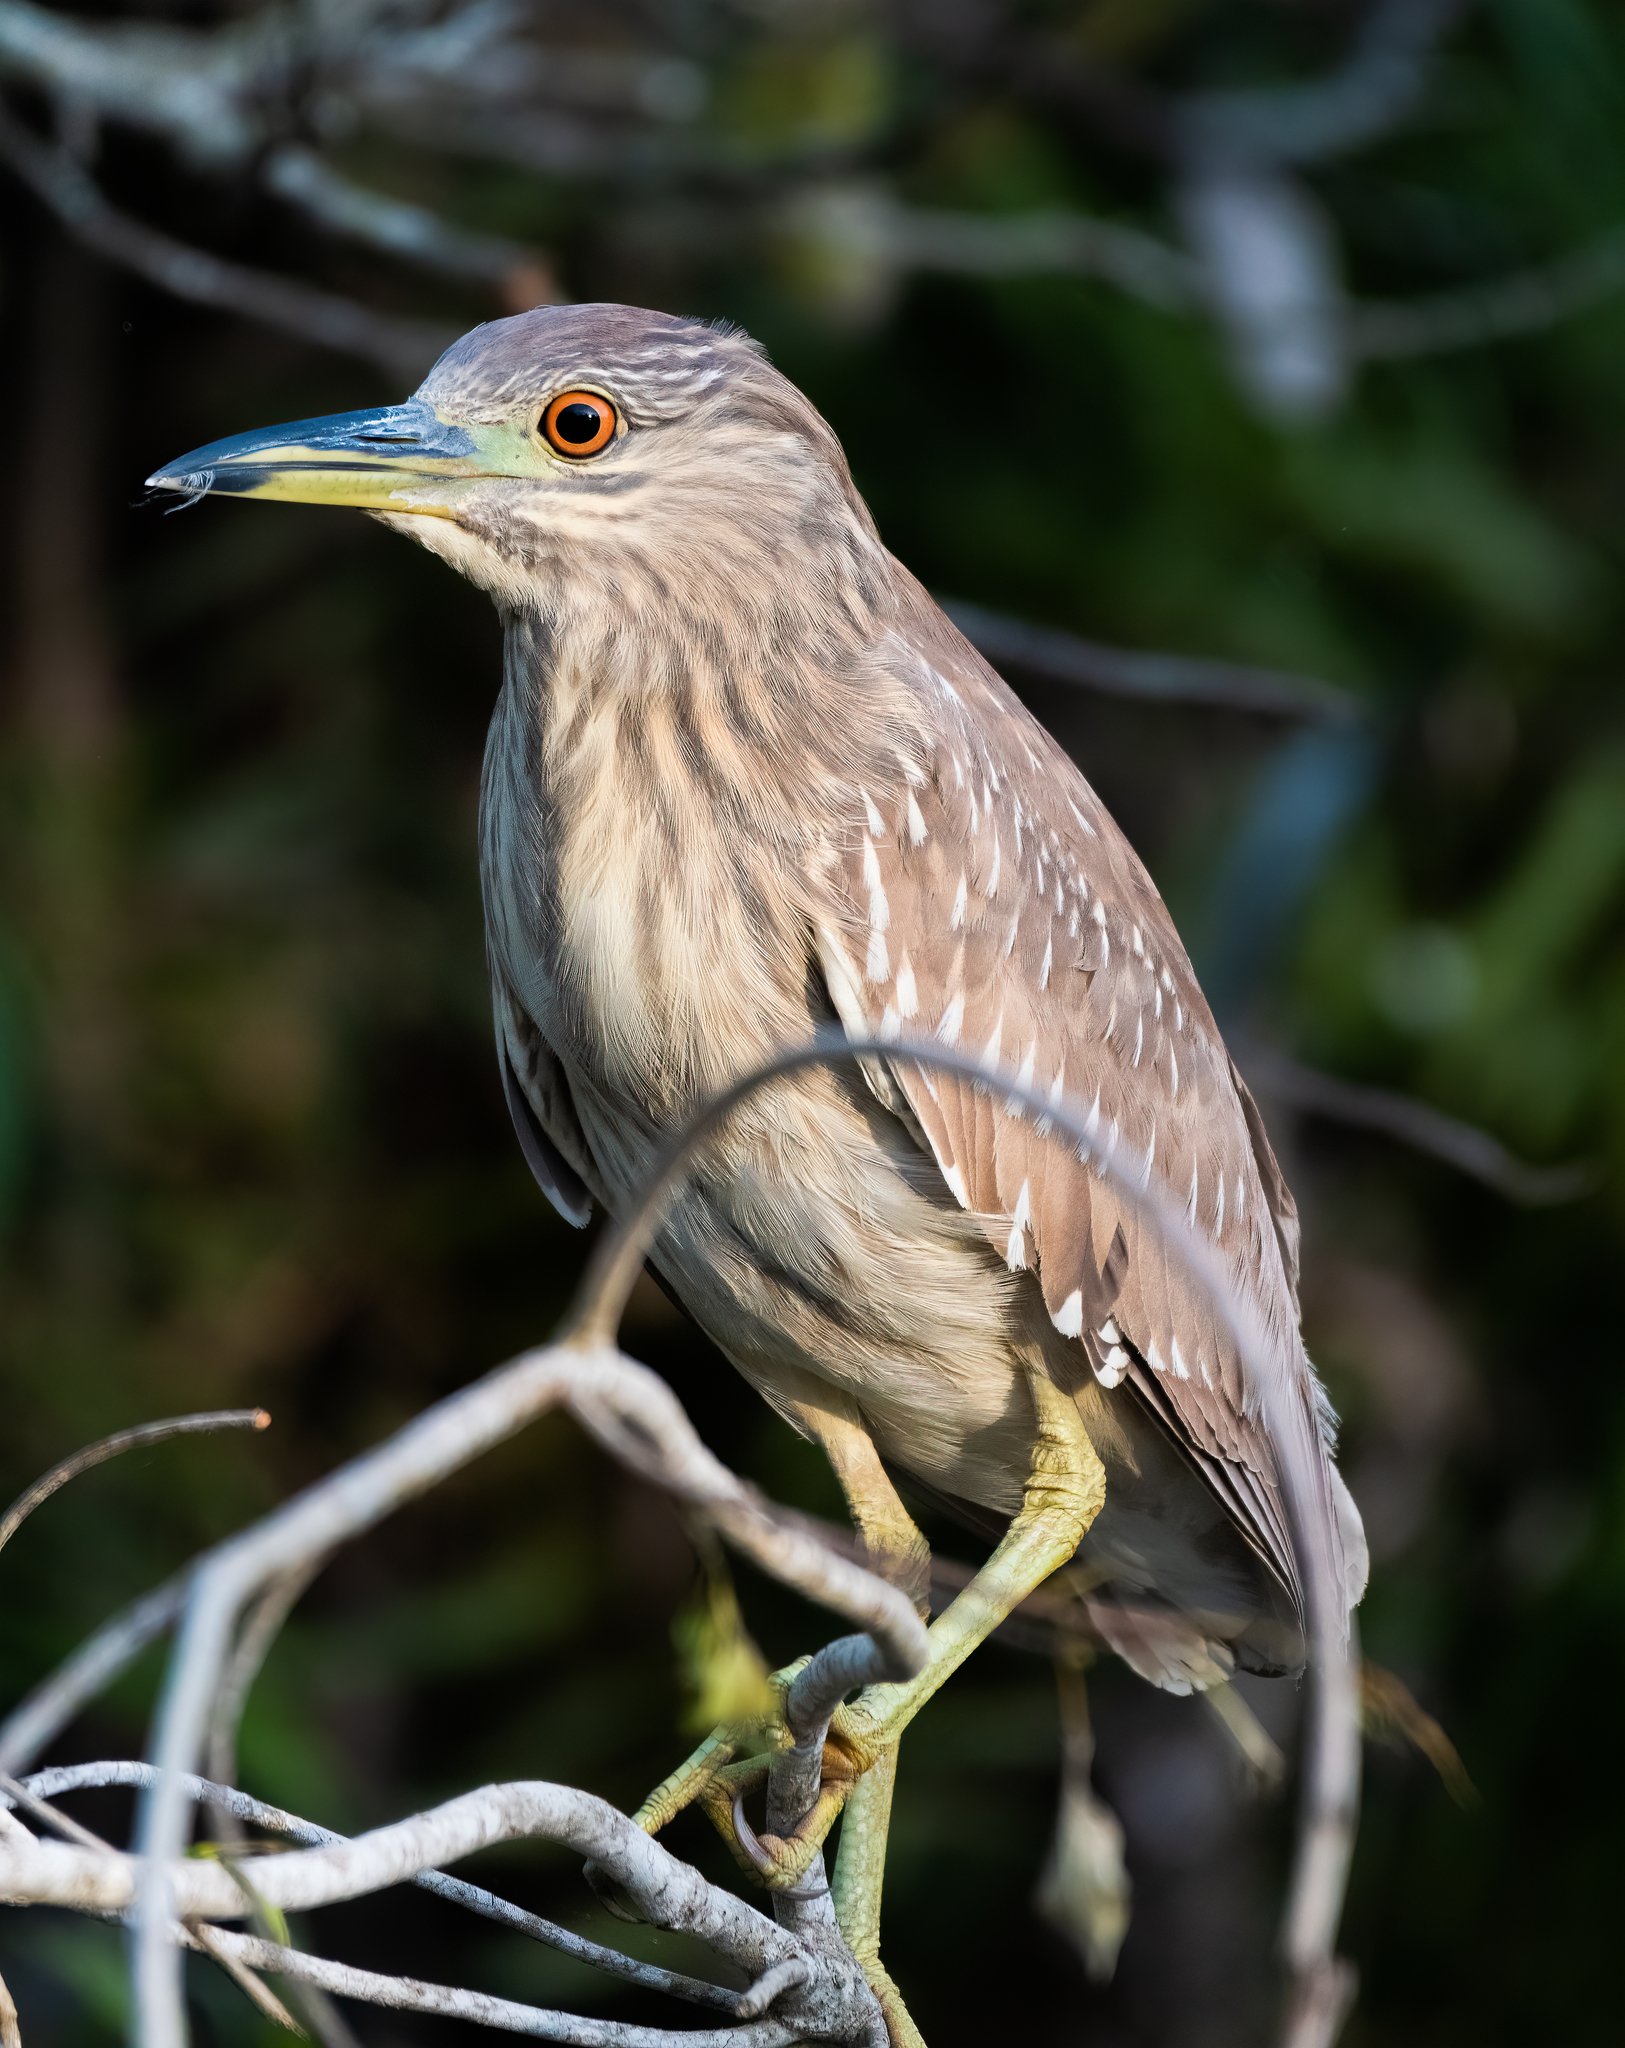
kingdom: Animalia
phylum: Chordata
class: Aves
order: Pelecaniformes
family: Ardeidae
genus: Nycticorax
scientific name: Nycticorax nycticorax
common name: Black-crowned night heron
